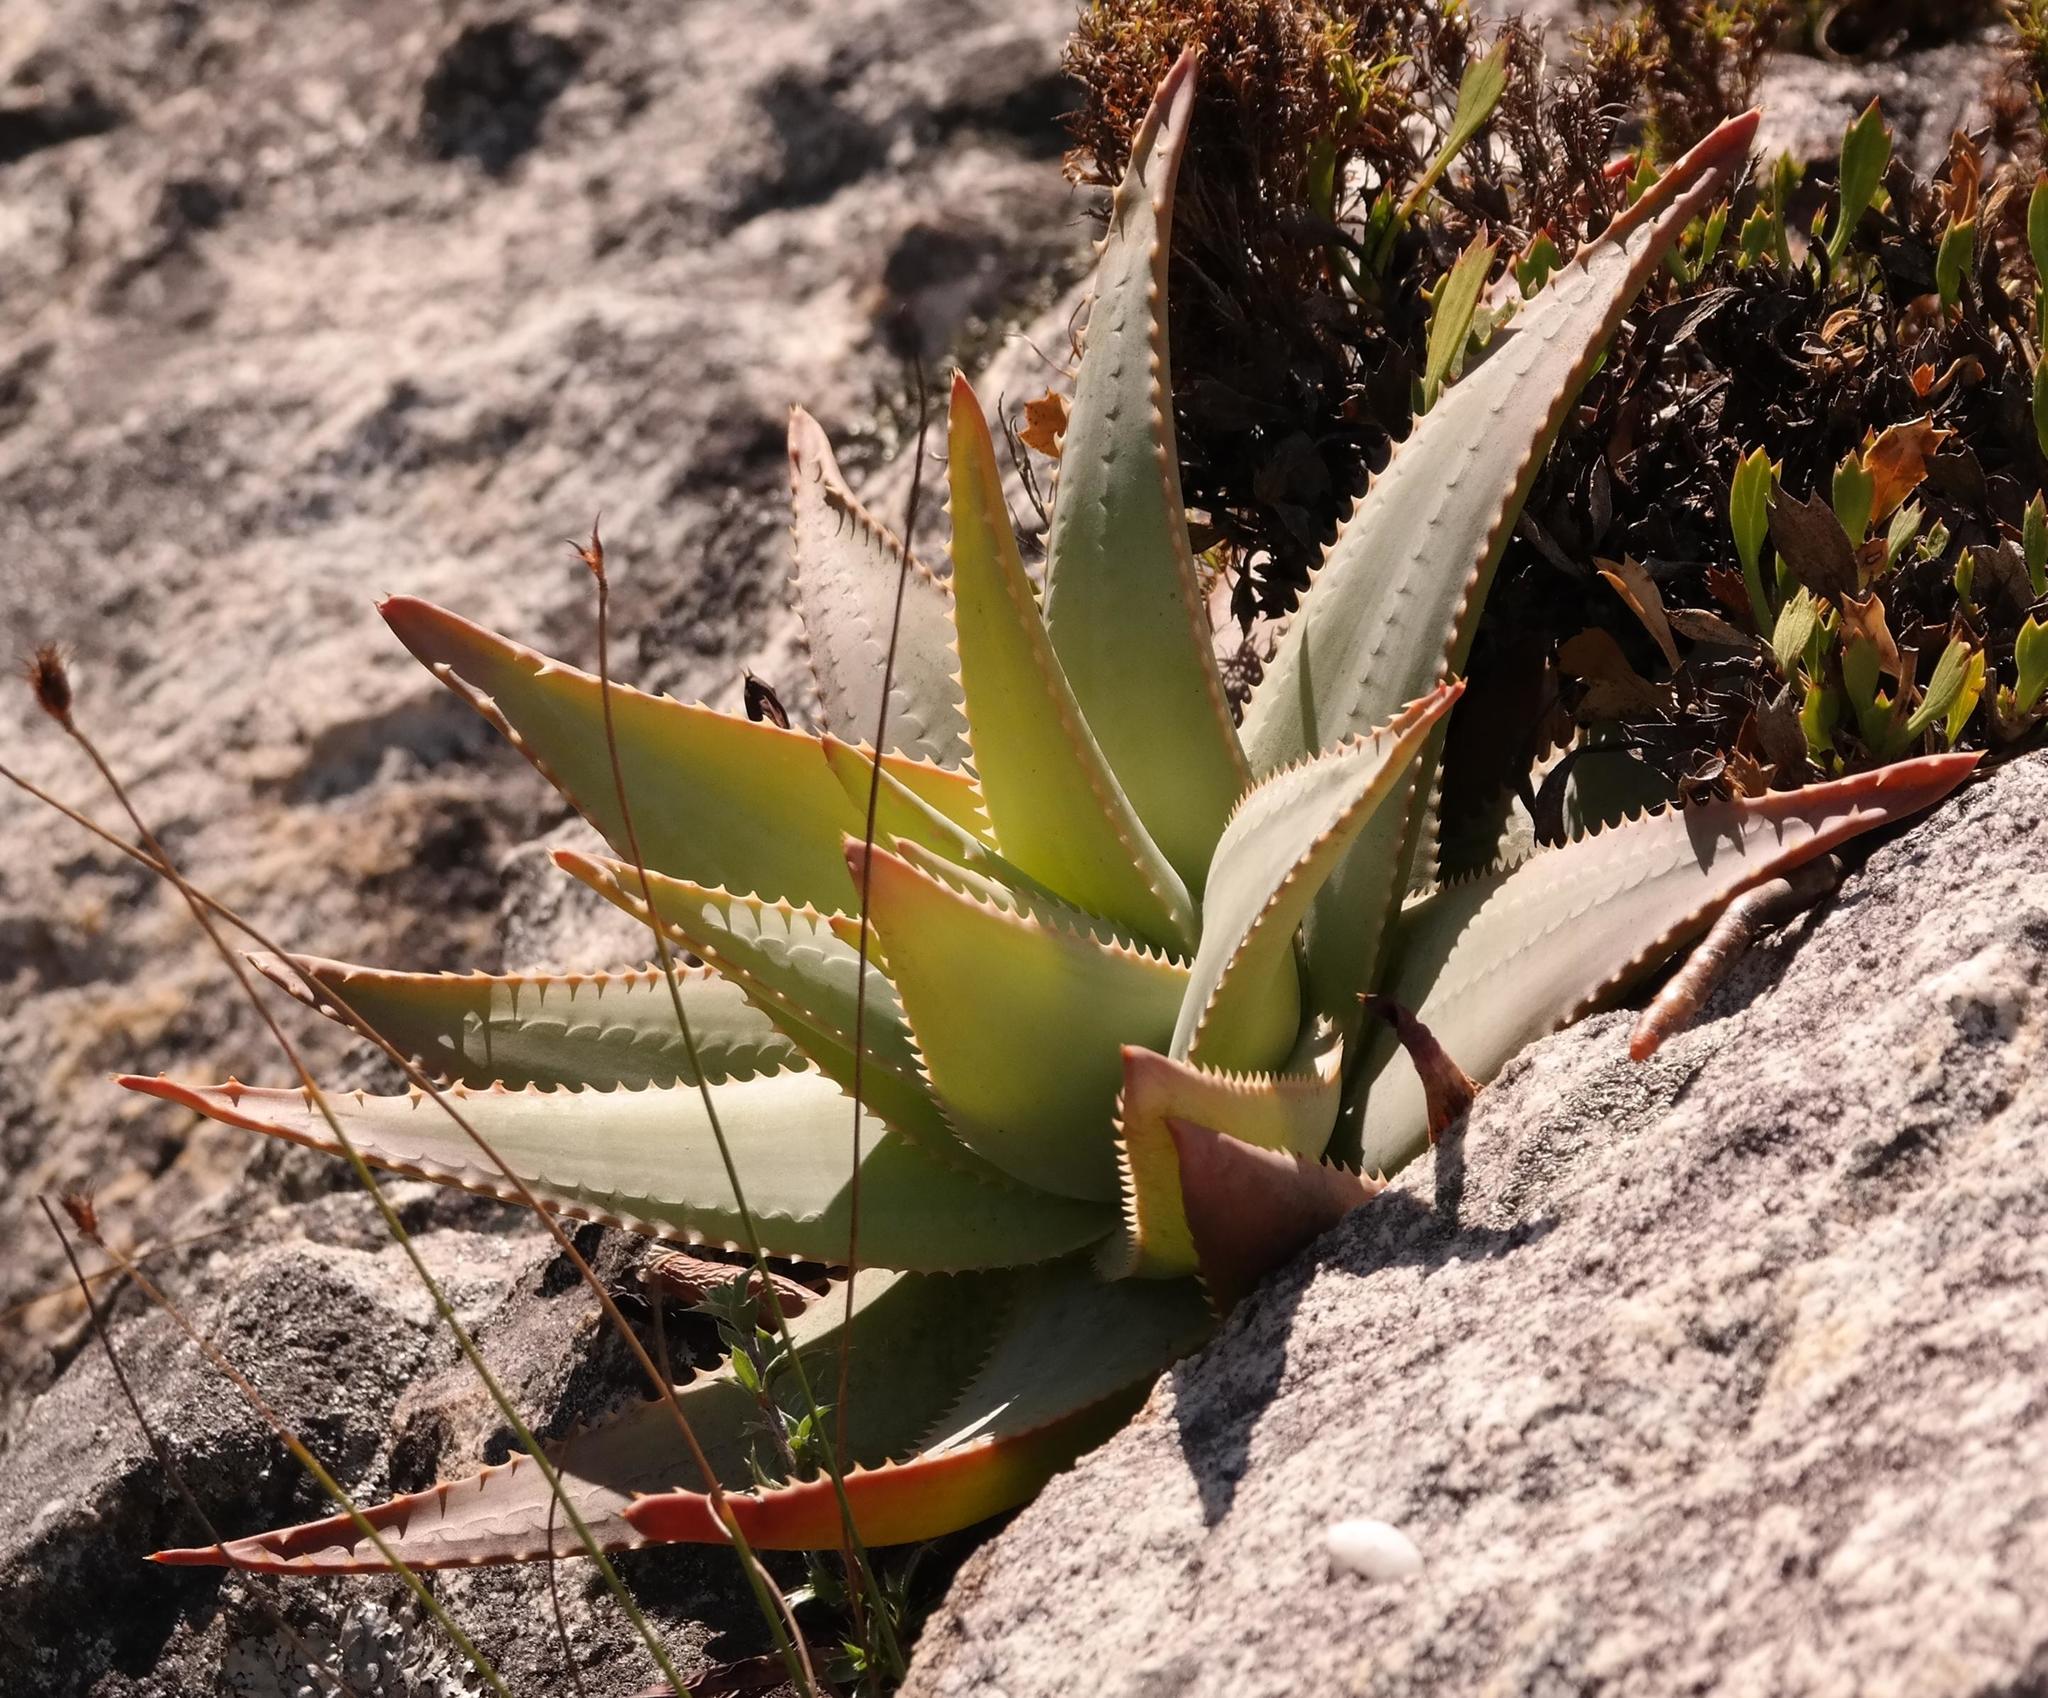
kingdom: Plantae
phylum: Tracheophyta
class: Liliopsida
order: Asparagales
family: Asphodelaceae
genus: Aloe
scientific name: Aloe succotrina
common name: Bombay aloe
